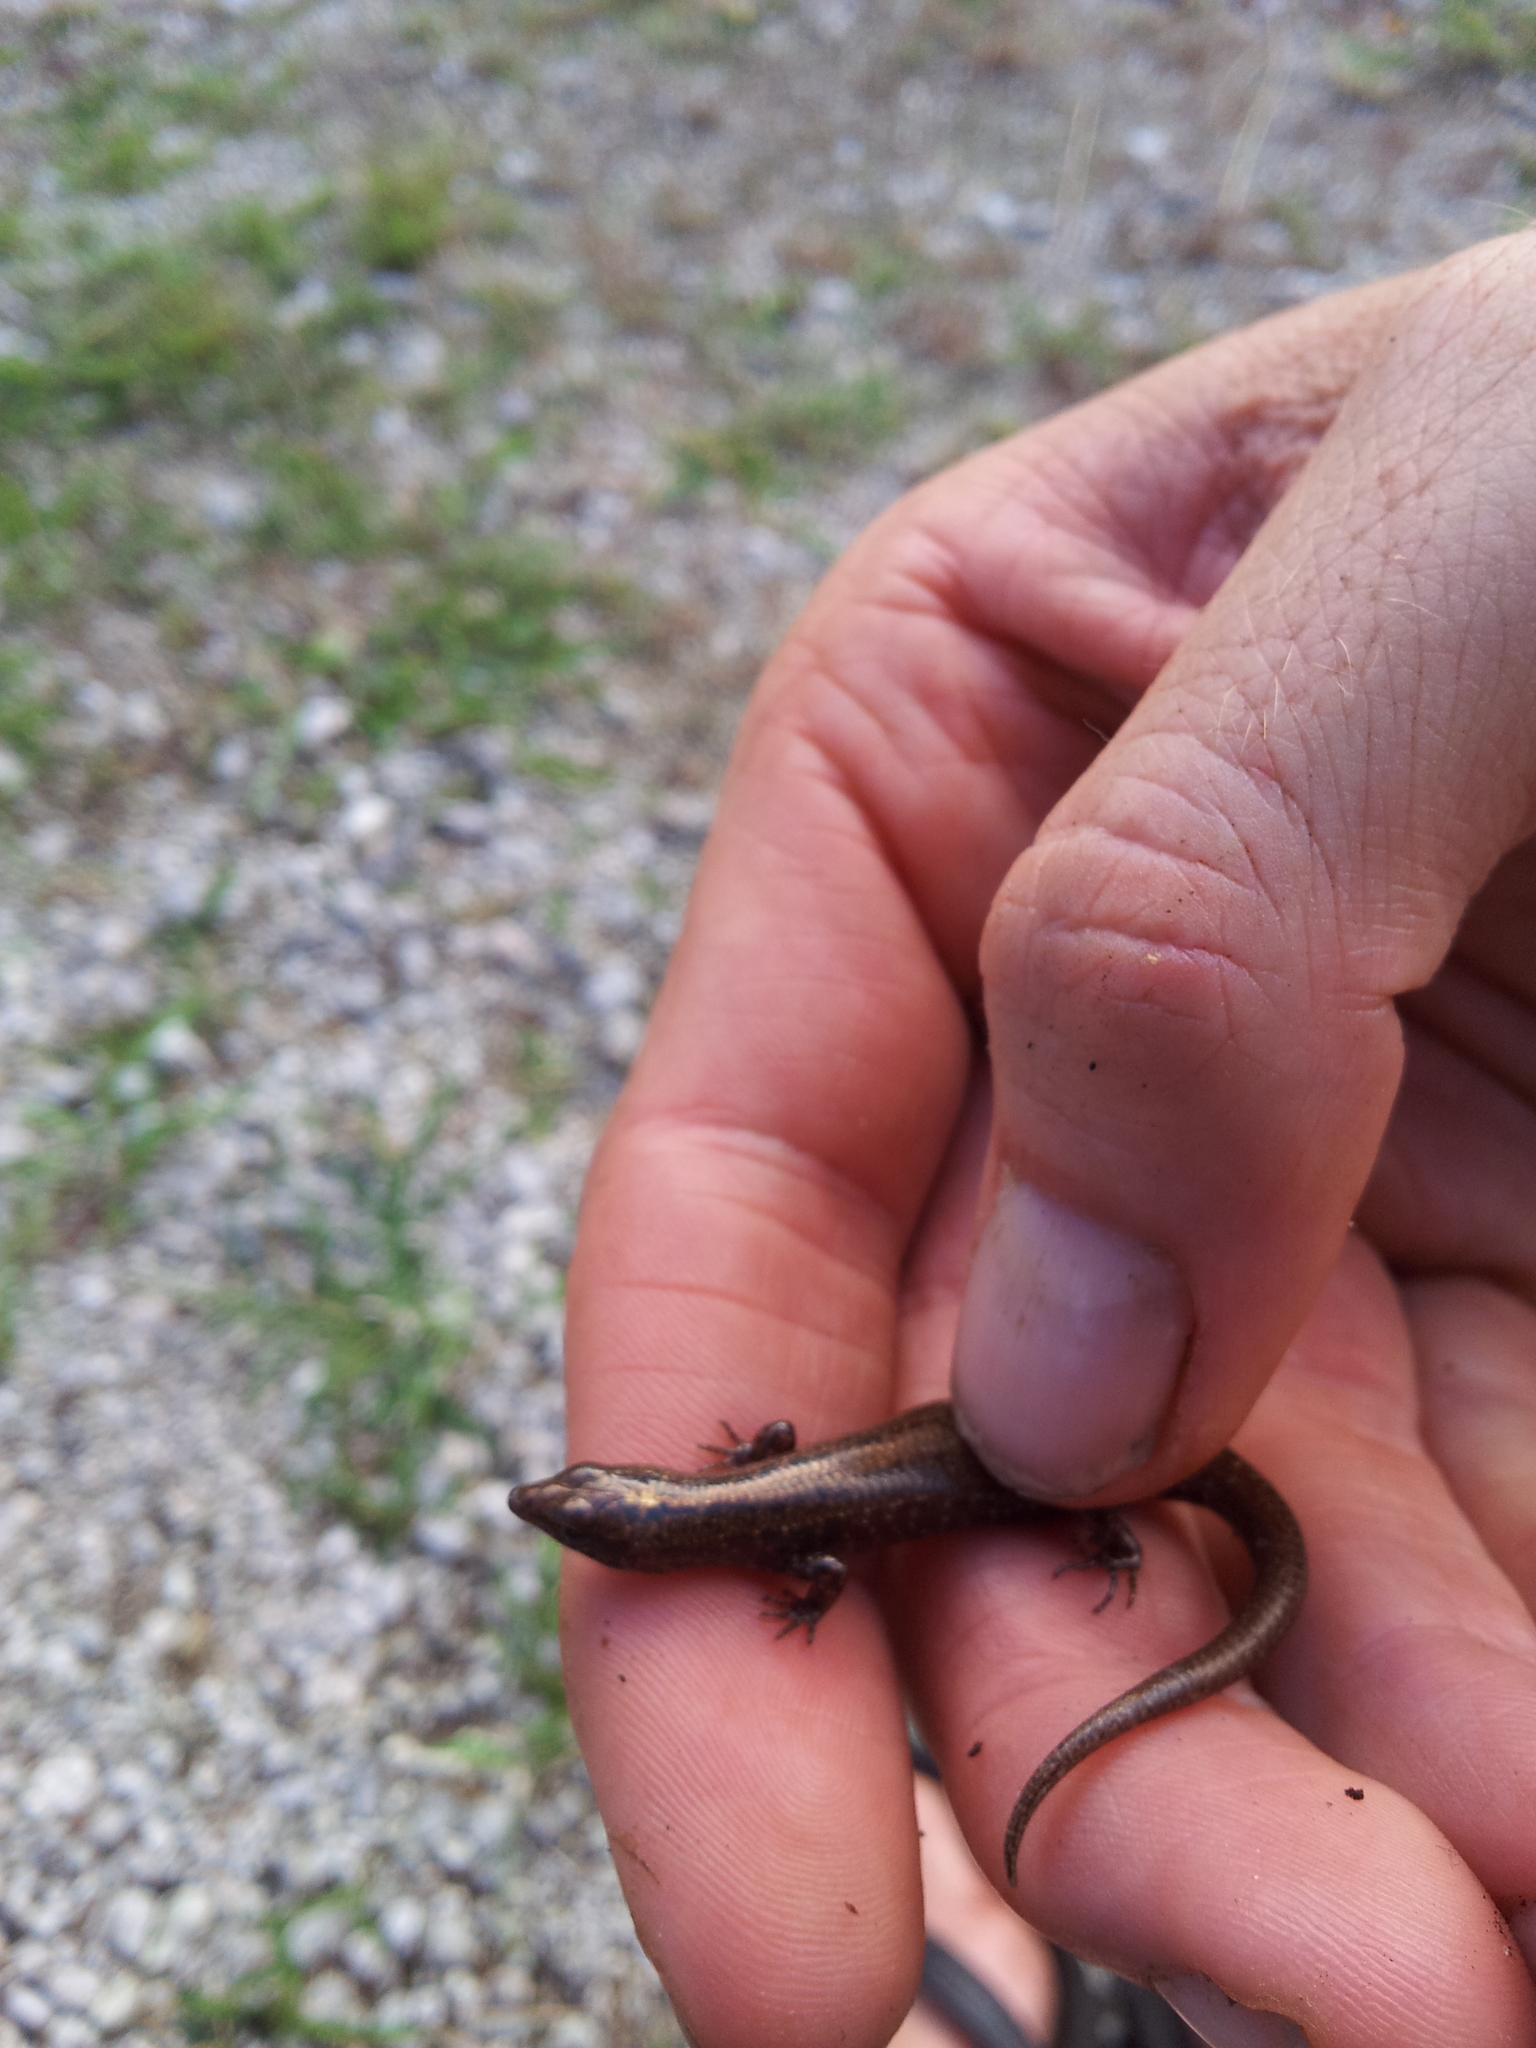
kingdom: Animalia
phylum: Chordata
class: Squamata
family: Scincidae
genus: Ornithuroscincus
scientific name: Ornithuroscincus noctua
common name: Moth skink
